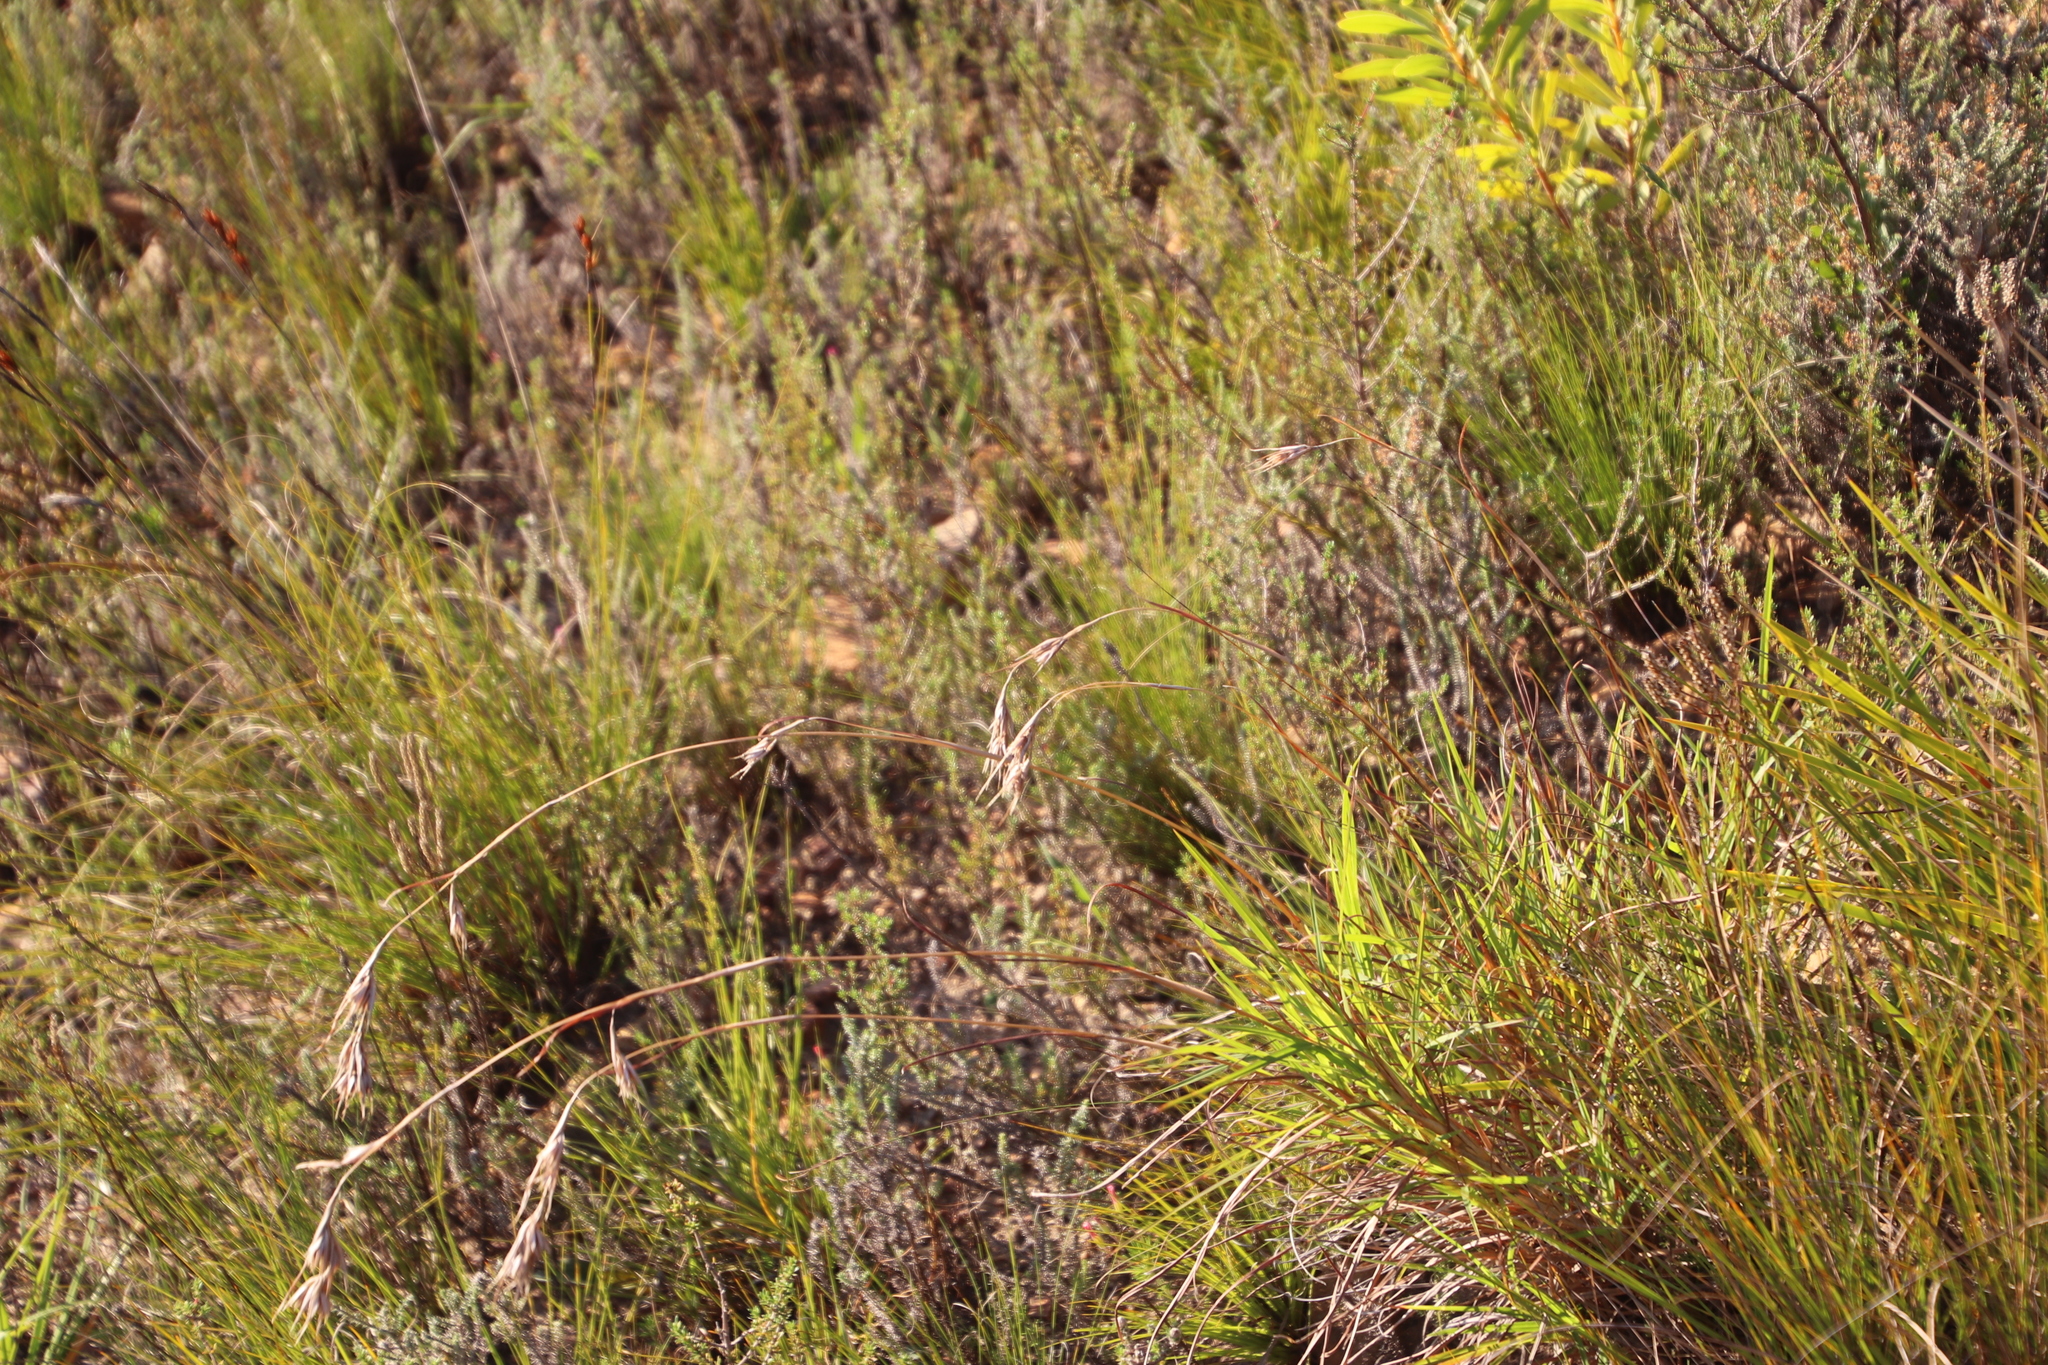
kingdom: Plantae
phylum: Tracheophyta
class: Liliopsida
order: Poales
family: Poaceae
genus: Themeda
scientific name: Themeda triandra
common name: Kangaroo grass
